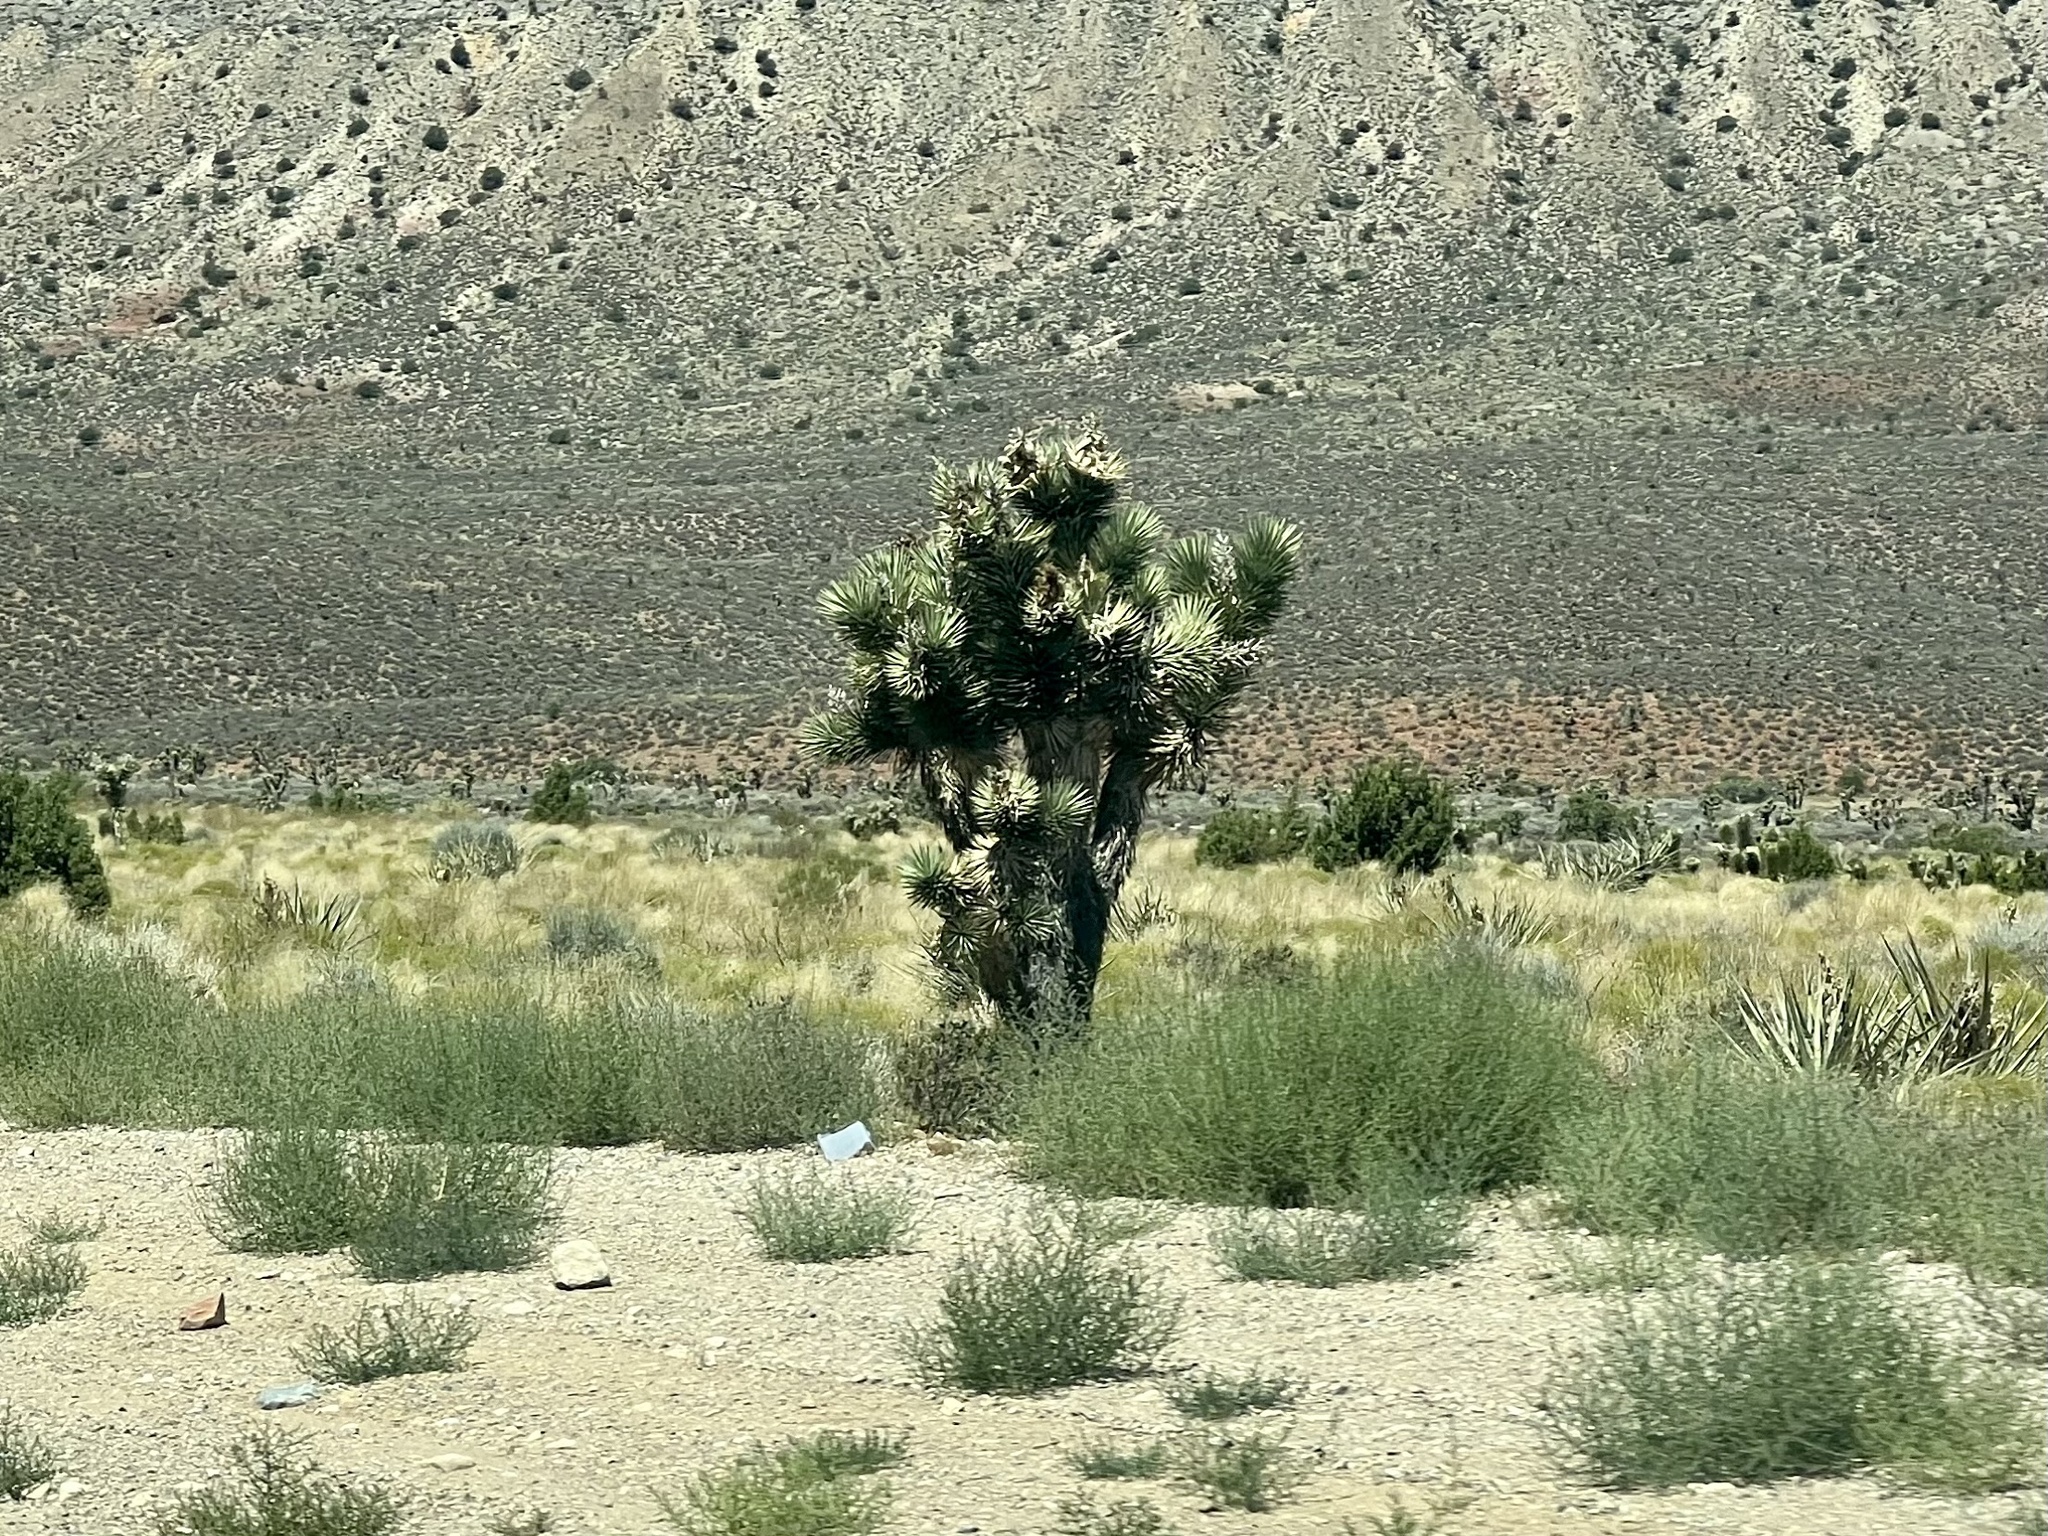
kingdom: Plantae
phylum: Tracheophyta
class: Liliopsida
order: Asparagales
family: Asparagaceae
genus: Yucca
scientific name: Yucca brevifolia
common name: Joshua tree
